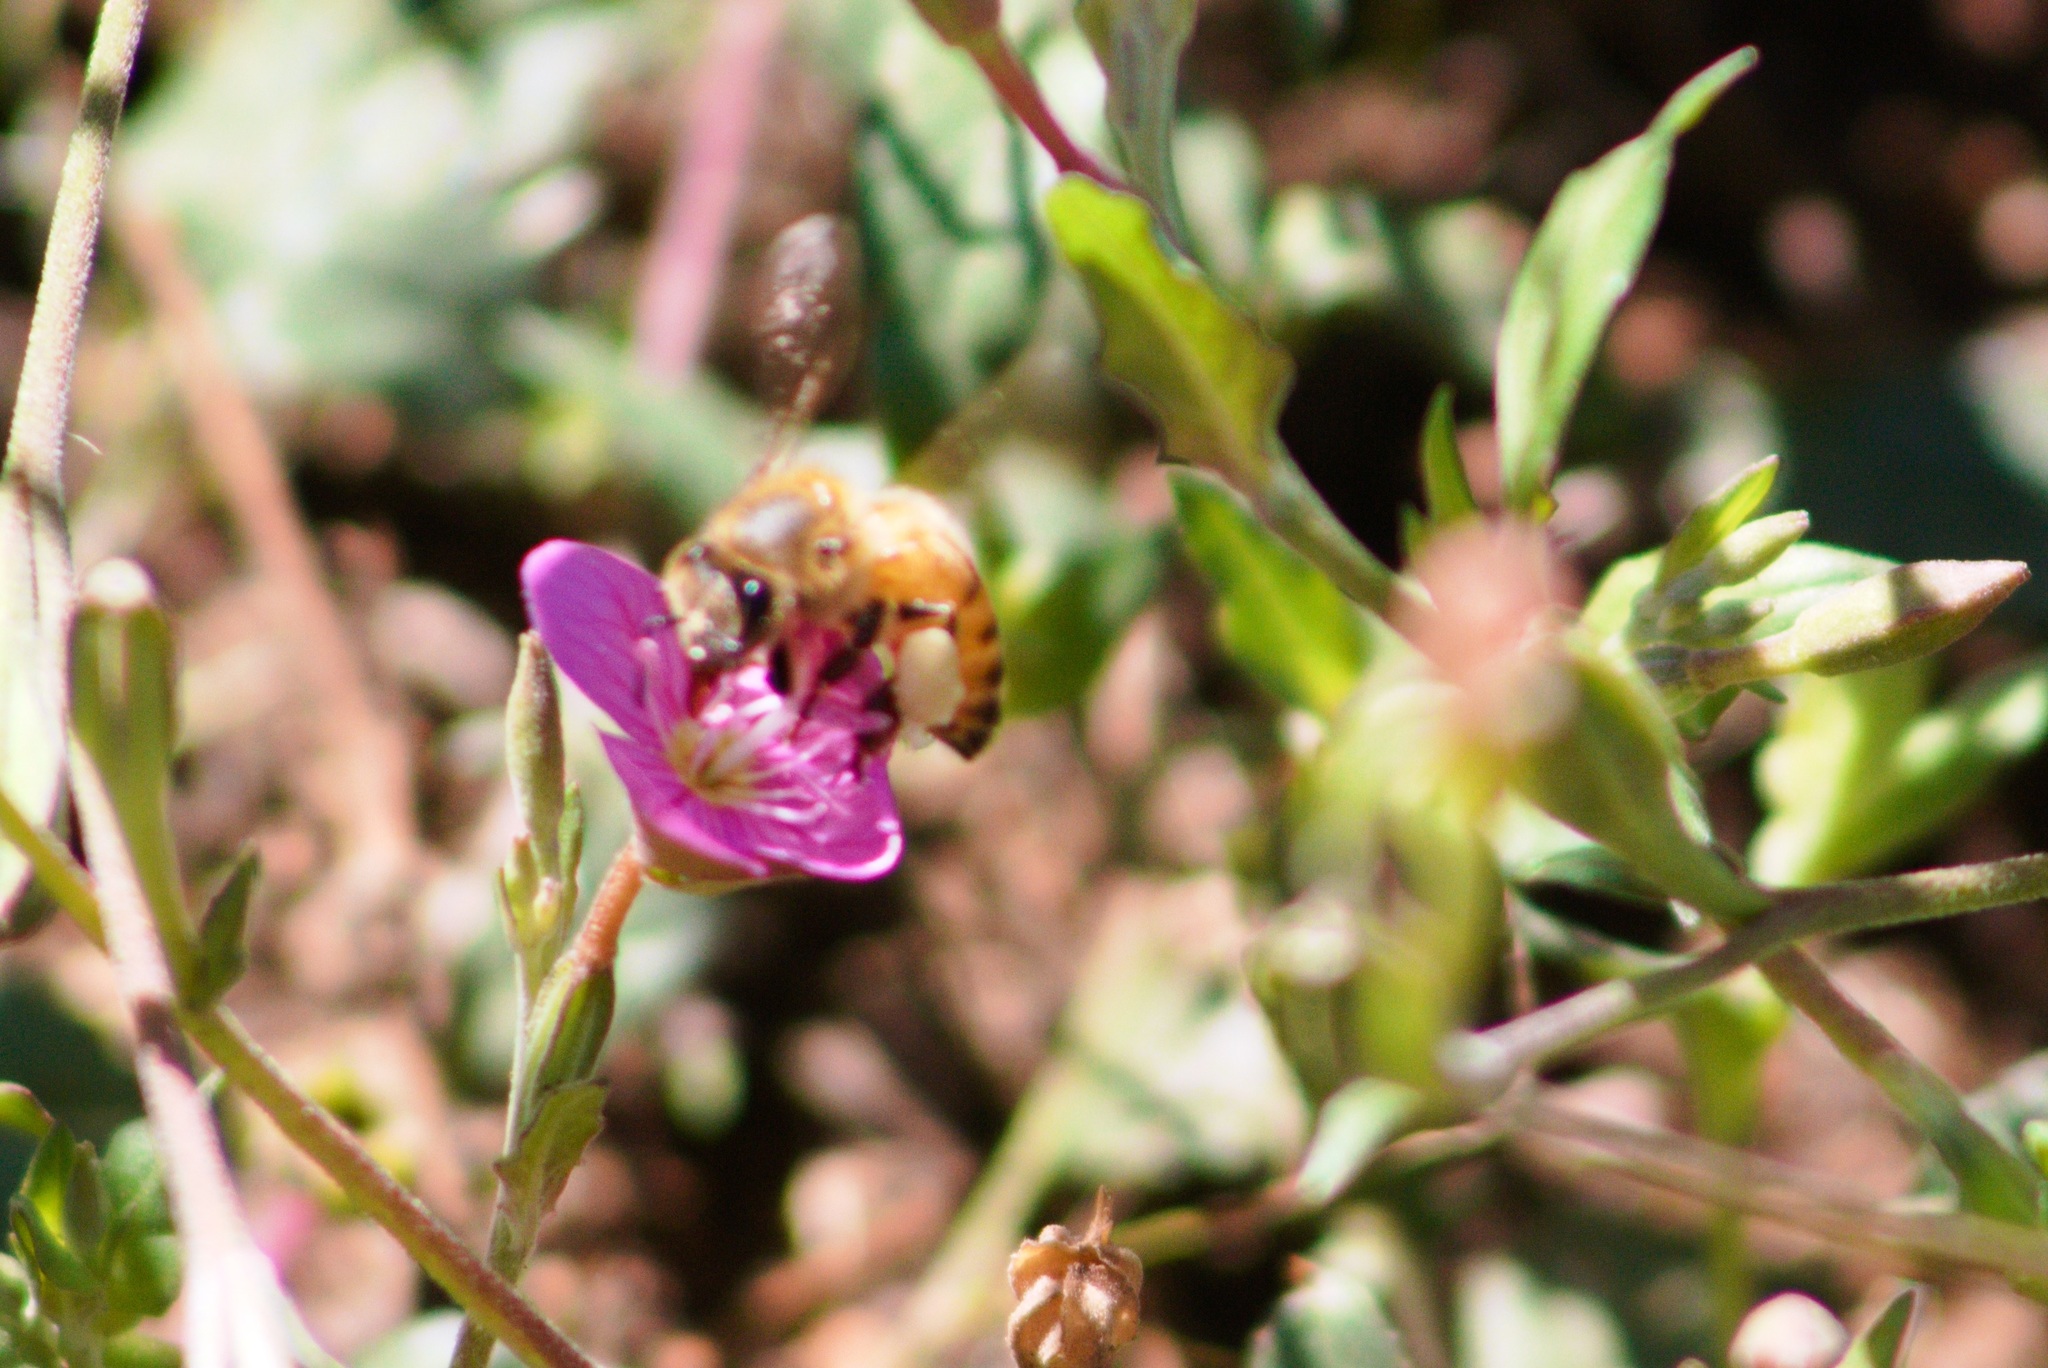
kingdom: Animalia
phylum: Arthropoda
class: Insecta
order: Hymenoptera
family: Apidae
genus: Apis
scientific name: Apis mellifera
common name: Honey bee
